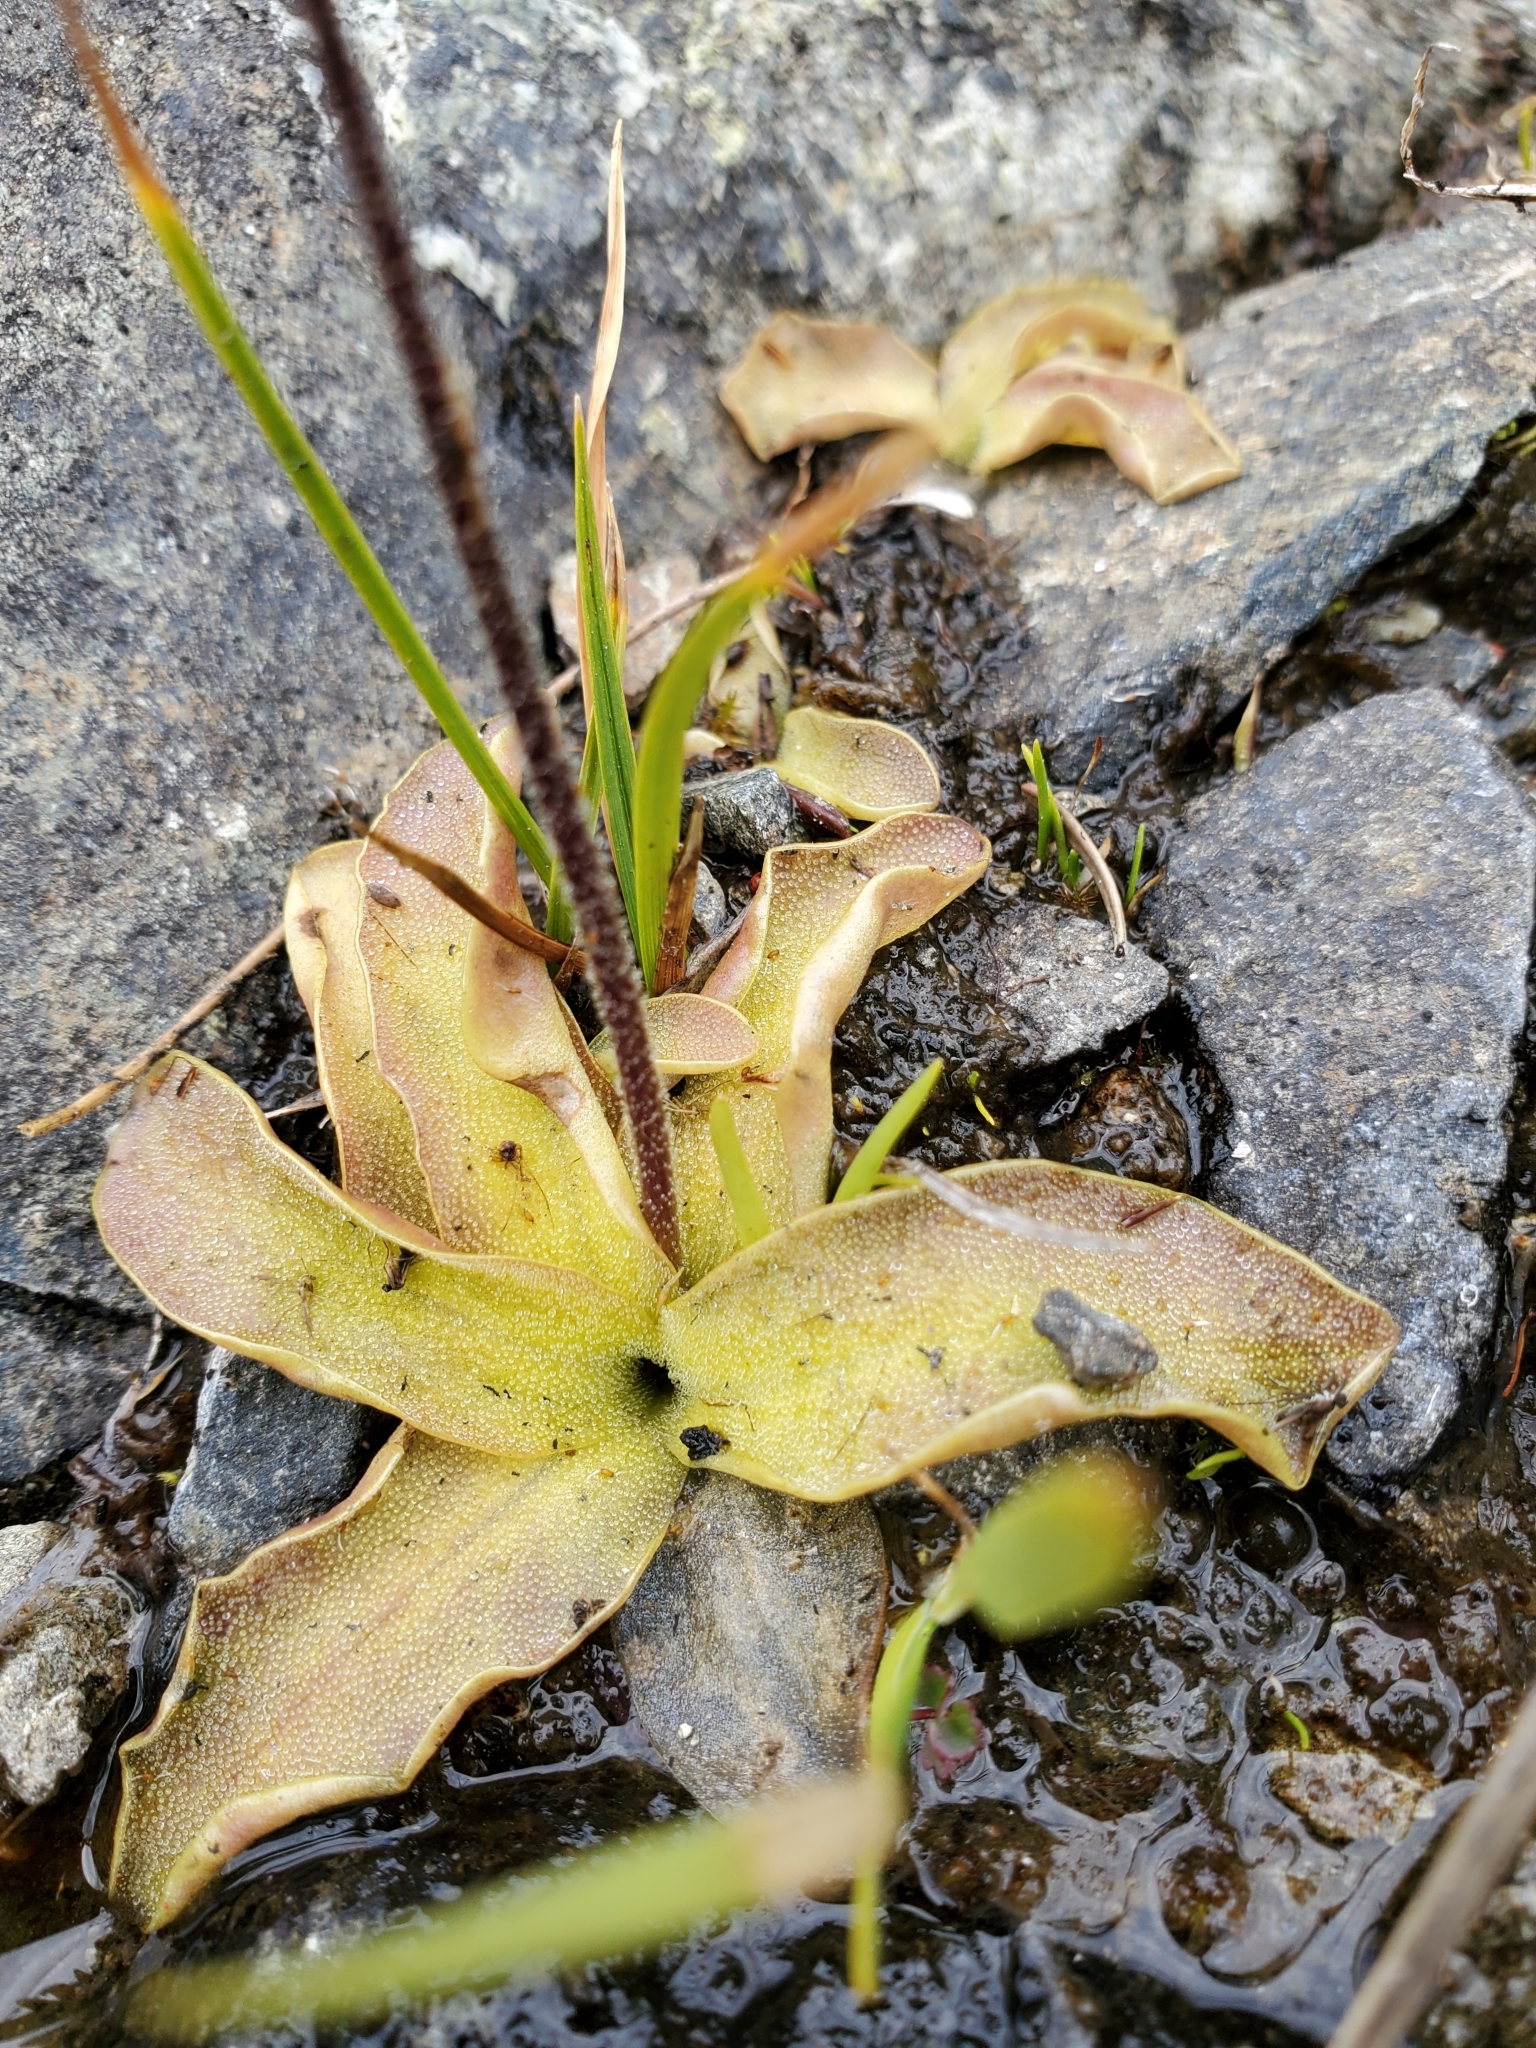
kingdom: Plantae
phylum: Tracheophyta
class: Magnoliopsida
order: Lamiales
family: Lentibulariaceae
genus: Pinguicula
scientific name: Pinguicula vulgaris
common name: Common butterwort
